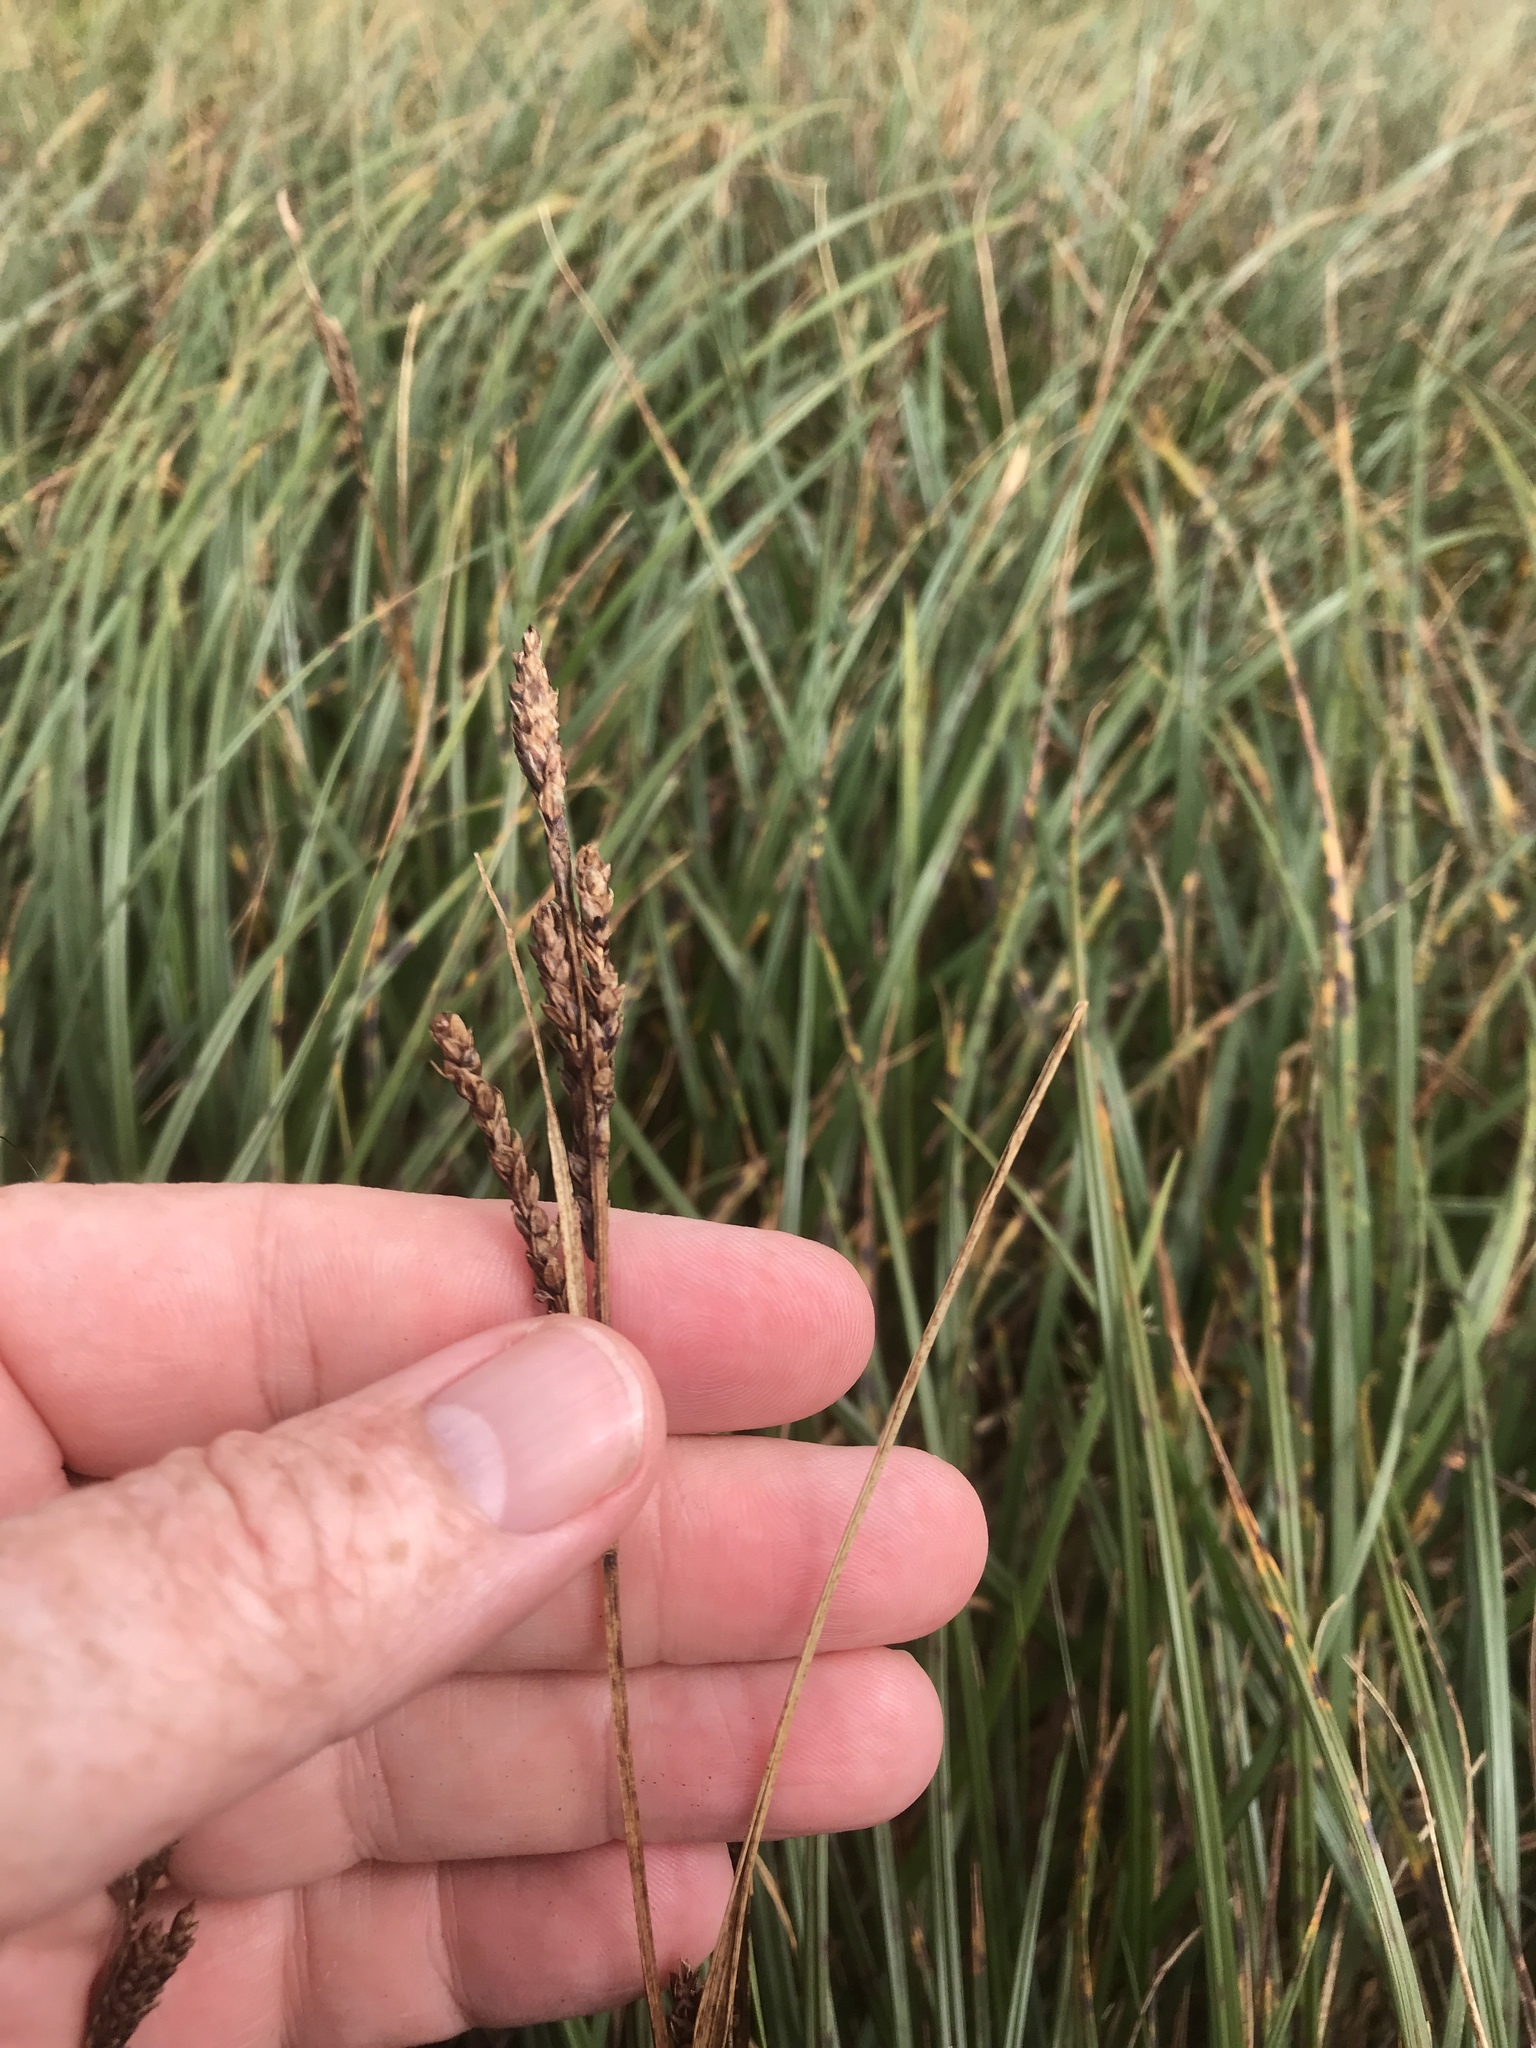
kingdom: Plantae
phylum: Tracheophyta
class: Liliopsida
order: Poales
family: Cyperaceae
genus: Carex
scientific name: Carex bigelowii
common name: Stiff sedge
